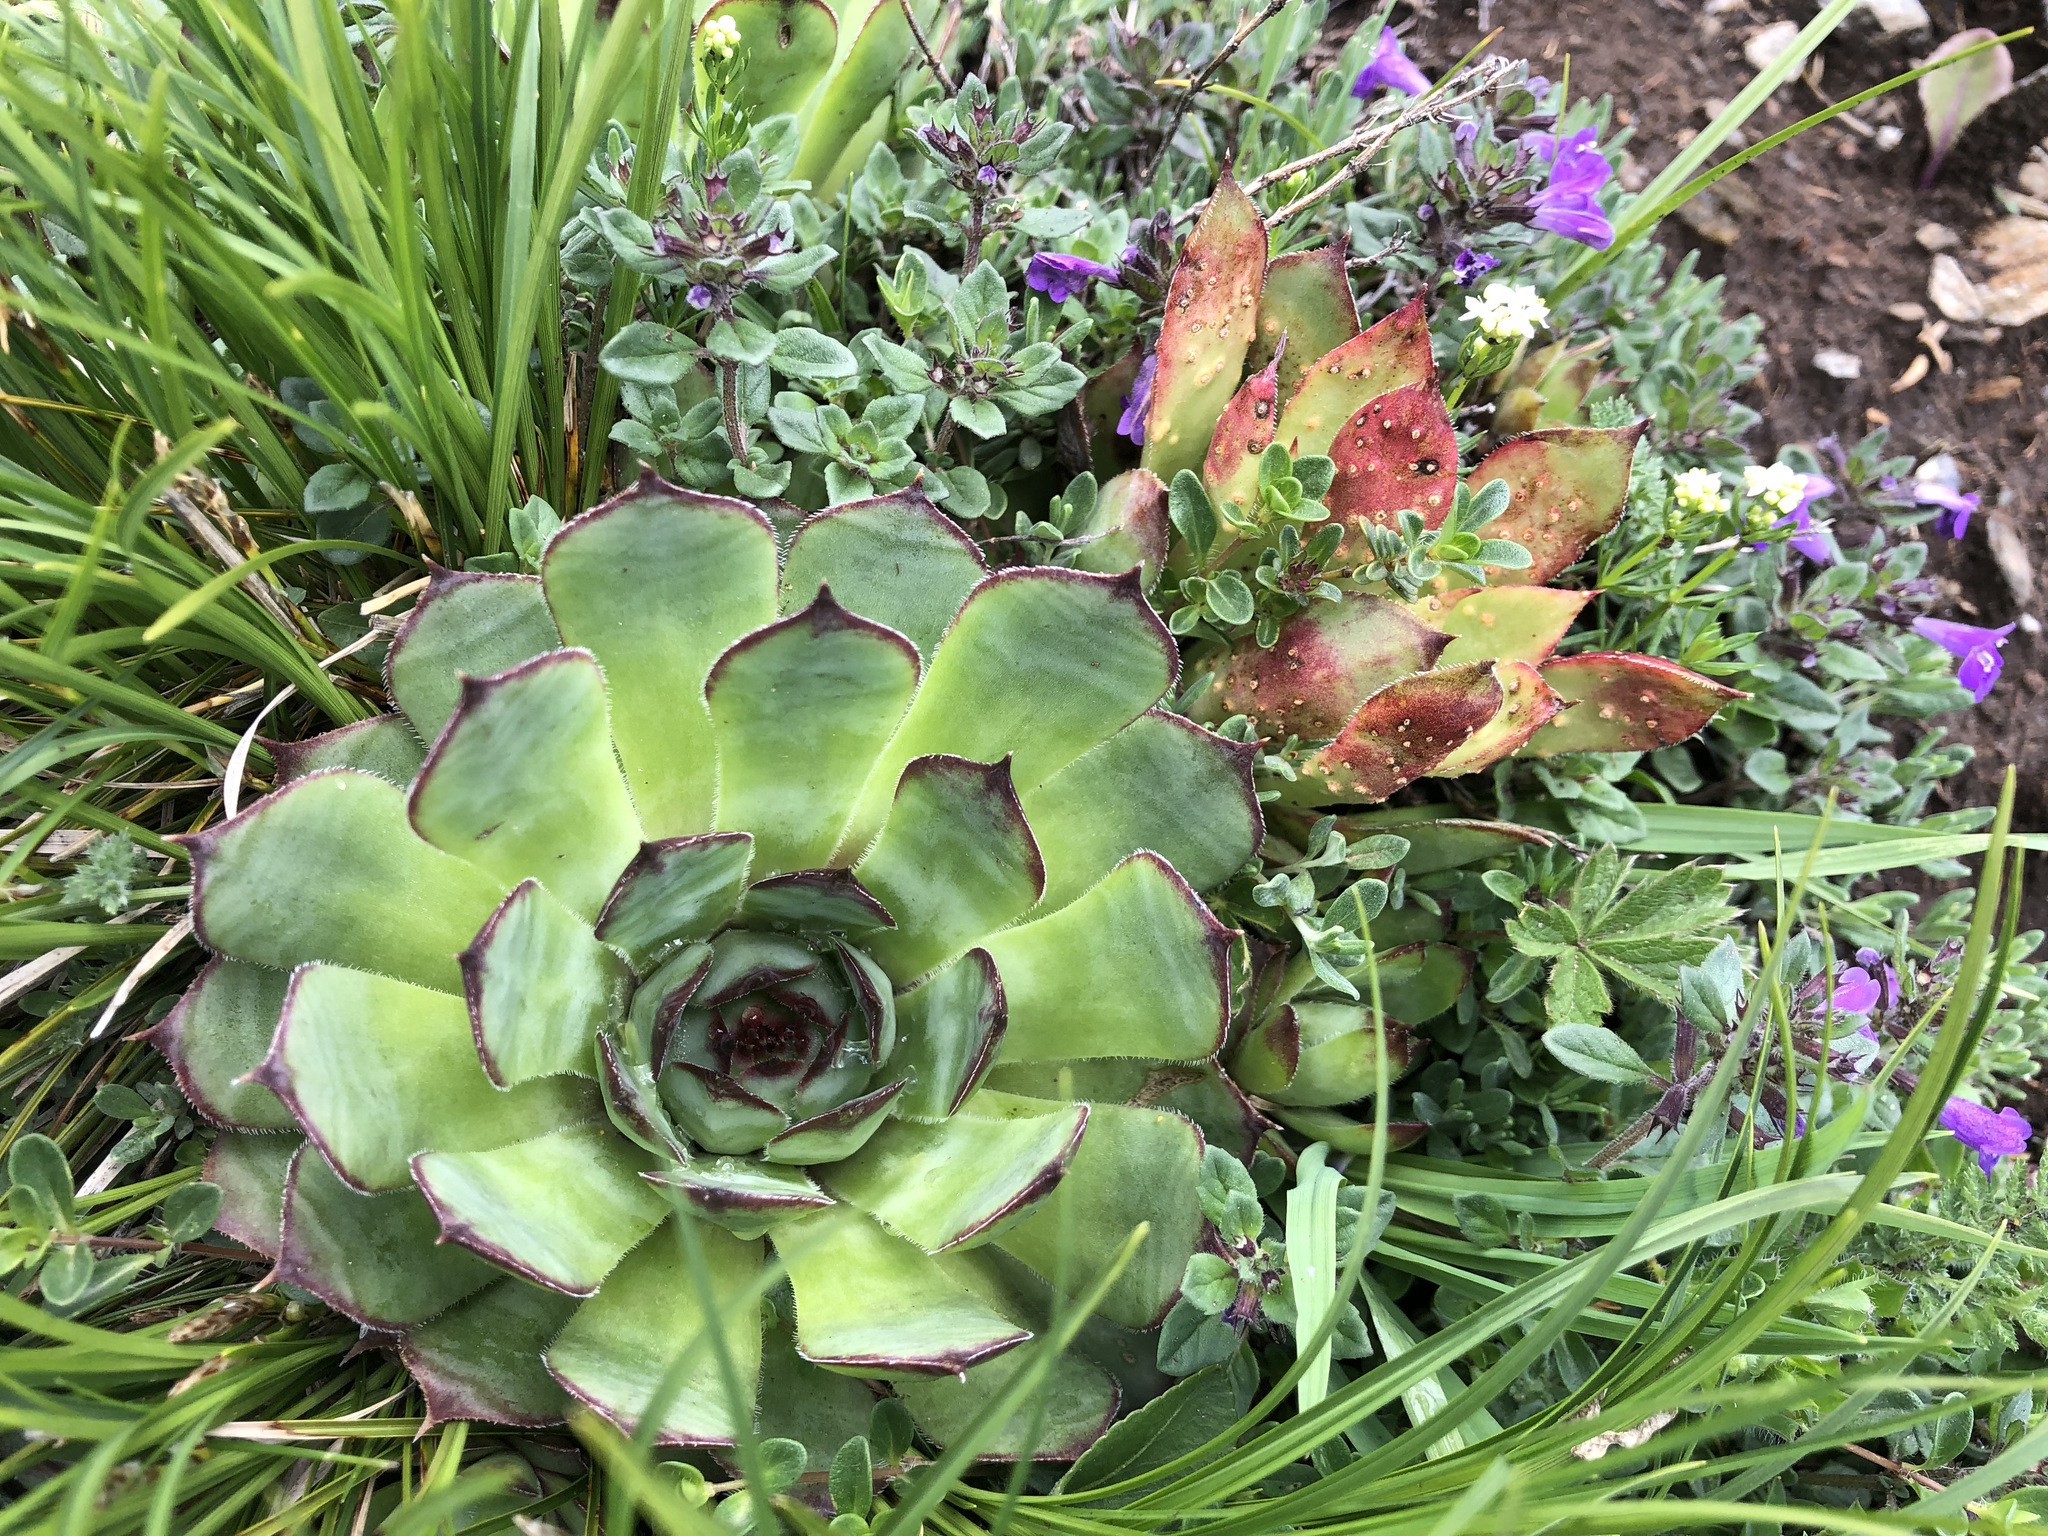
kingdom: Fungi
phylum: Basidiomycota
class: Pucciniomycetes
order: Pucciniales
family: Pucciniaceae
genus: Endophyllum
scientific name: Endophyllum sempervivi
